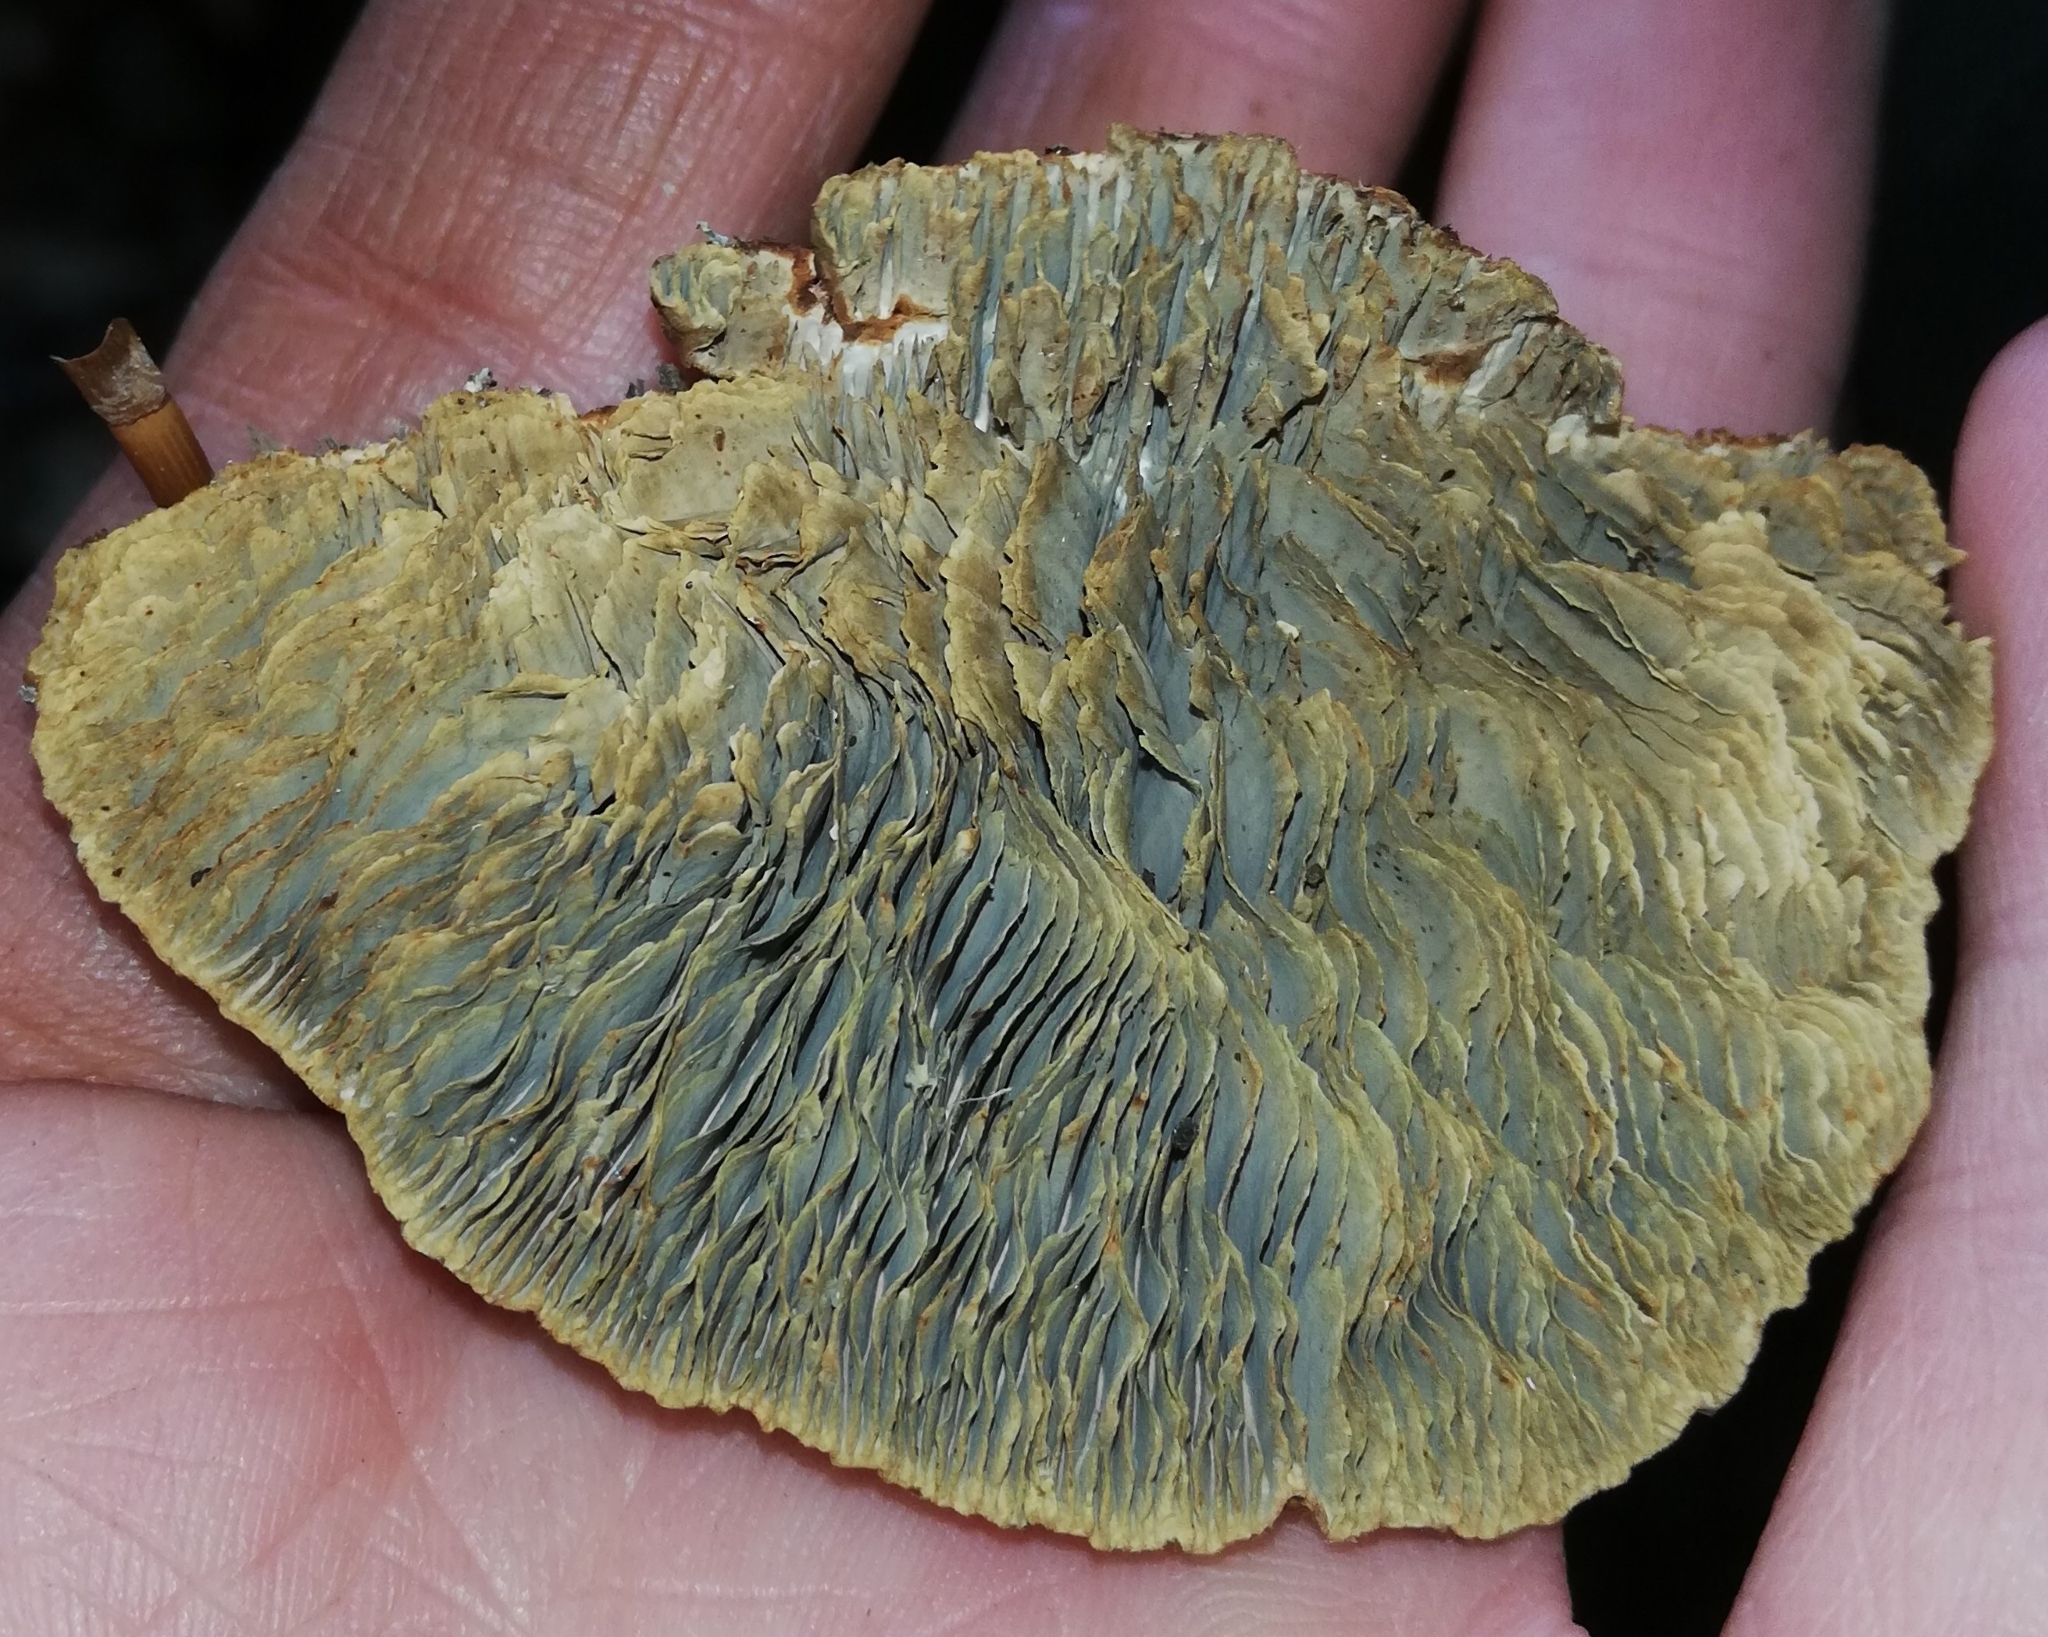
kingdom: Fungi
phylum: Basidiomycota
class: Agaricomycetes
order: Polyporales
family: Polyporaceae
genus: Daedaleopsis
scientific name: Daedaleopsis tricolor
